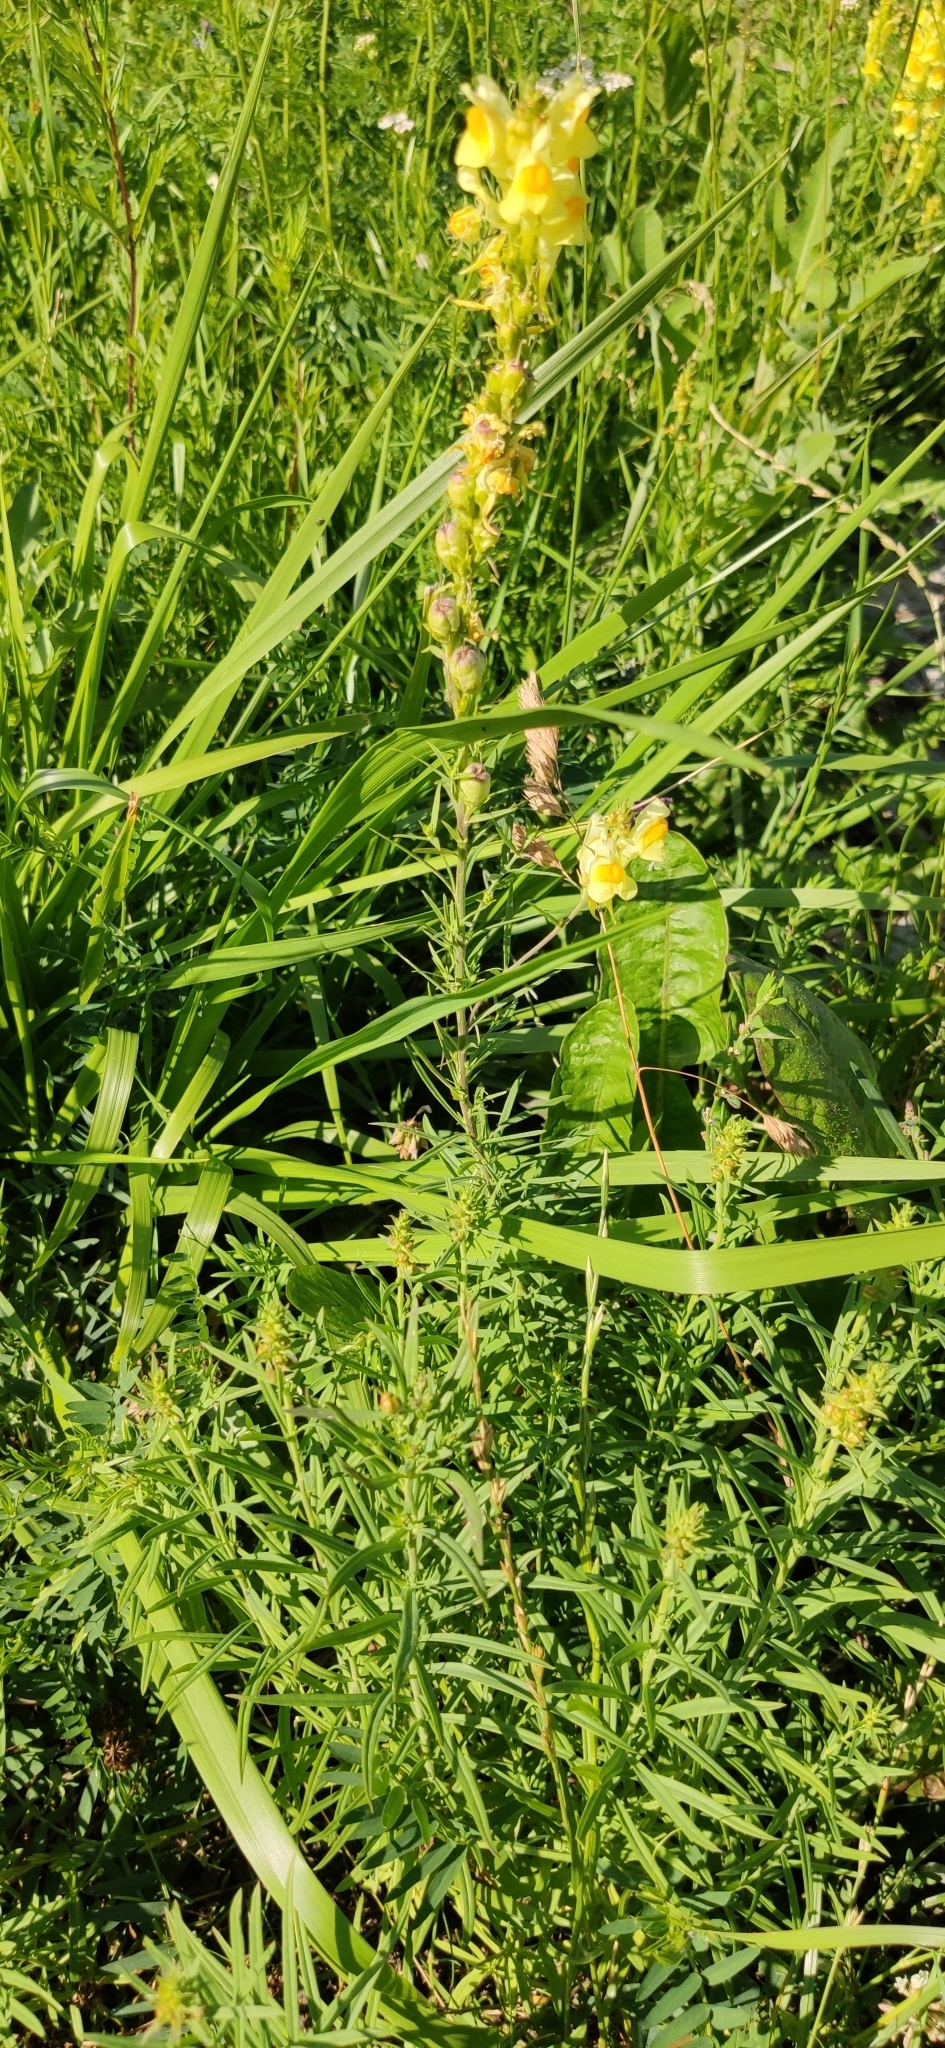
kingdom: Plantae
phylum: Tracheophyta
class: Magnoliopsida
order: Lamiales
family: Plantaginaceae
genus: Linaria
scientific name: Linaria vulgaris
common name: Butter and eggs
